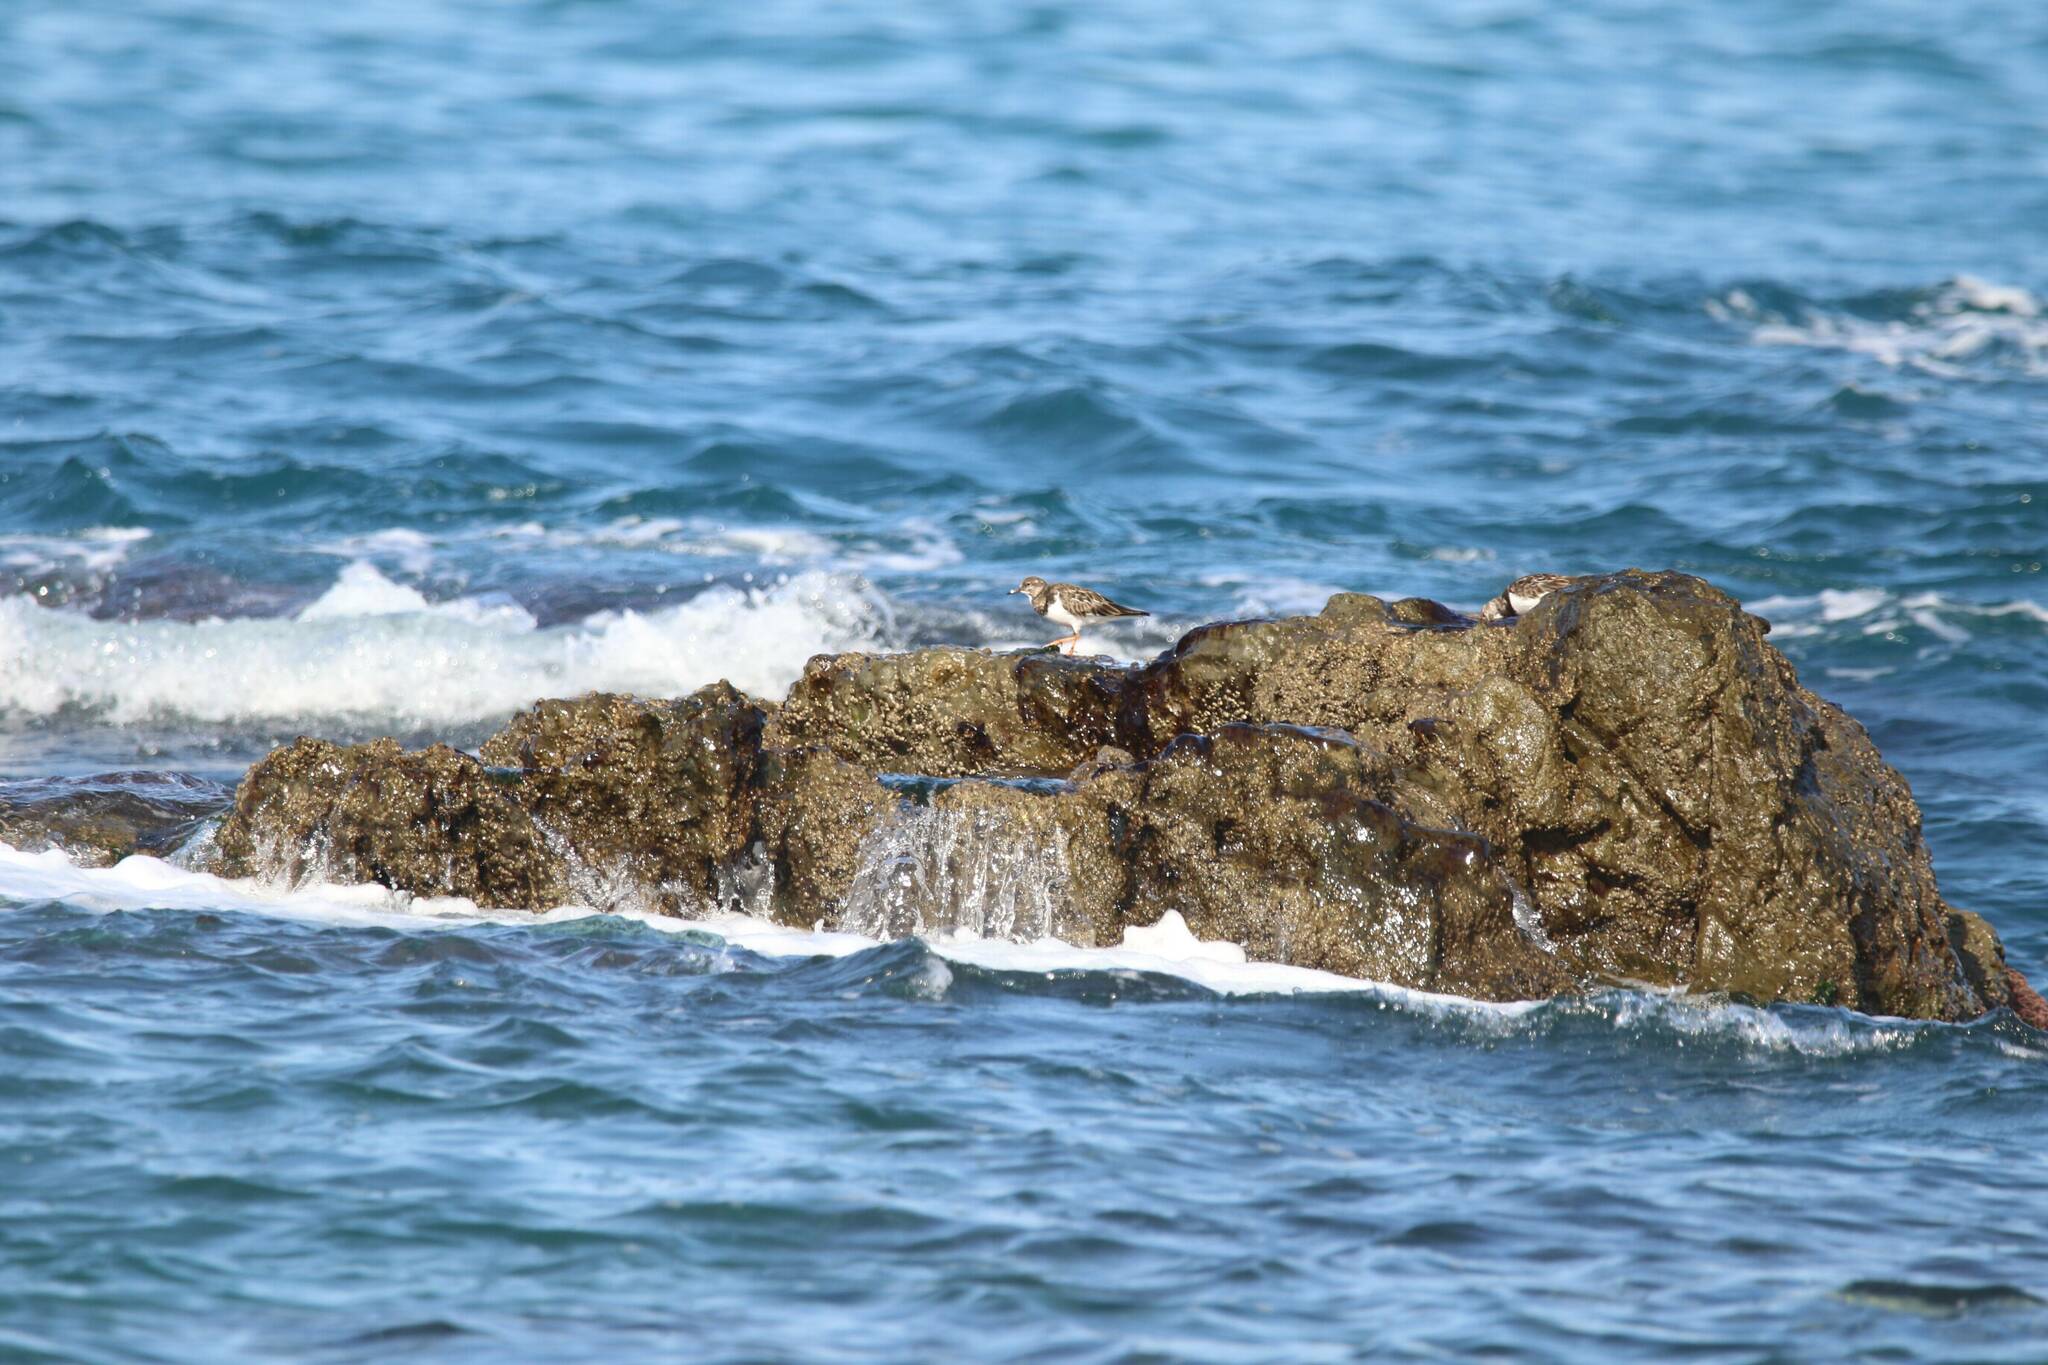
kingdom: Animalia
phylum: Chordata
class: Aves
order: Charadriiformes
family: Scolopacidae
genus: Arenaria
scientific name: Arenaria interpres
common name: Ruddy turnstone
